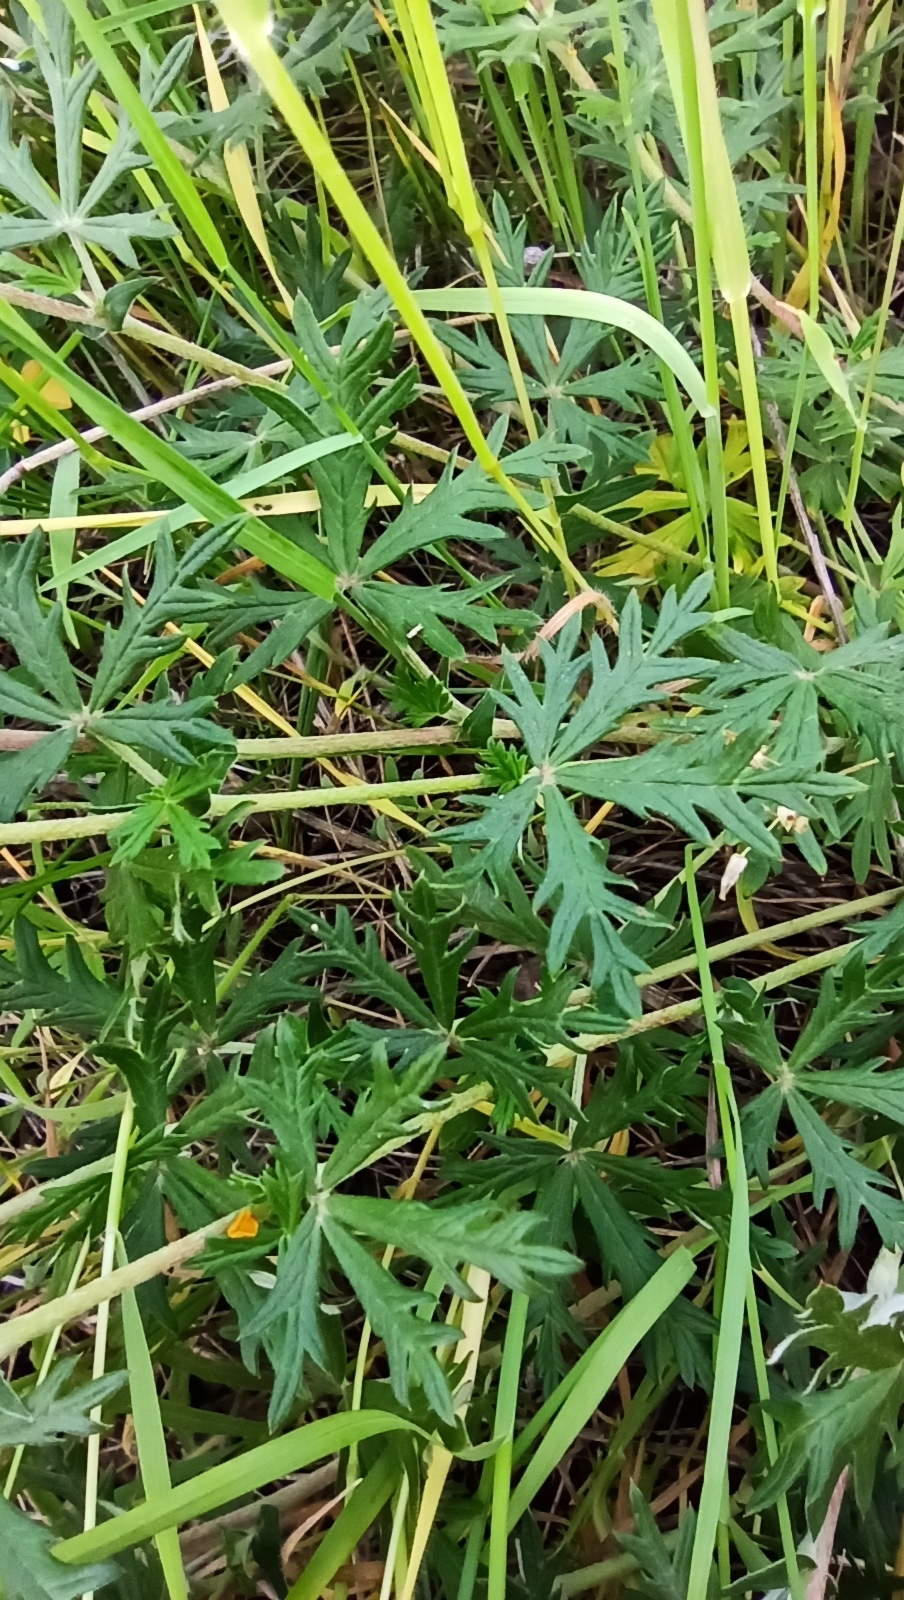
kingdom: Plantae
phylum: Tracheophyta
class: Magnoliopsida
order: Rosales
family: Rosaceae
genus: Potentilla
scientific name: Potentilla argentea
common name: Hoary cinquefoil
